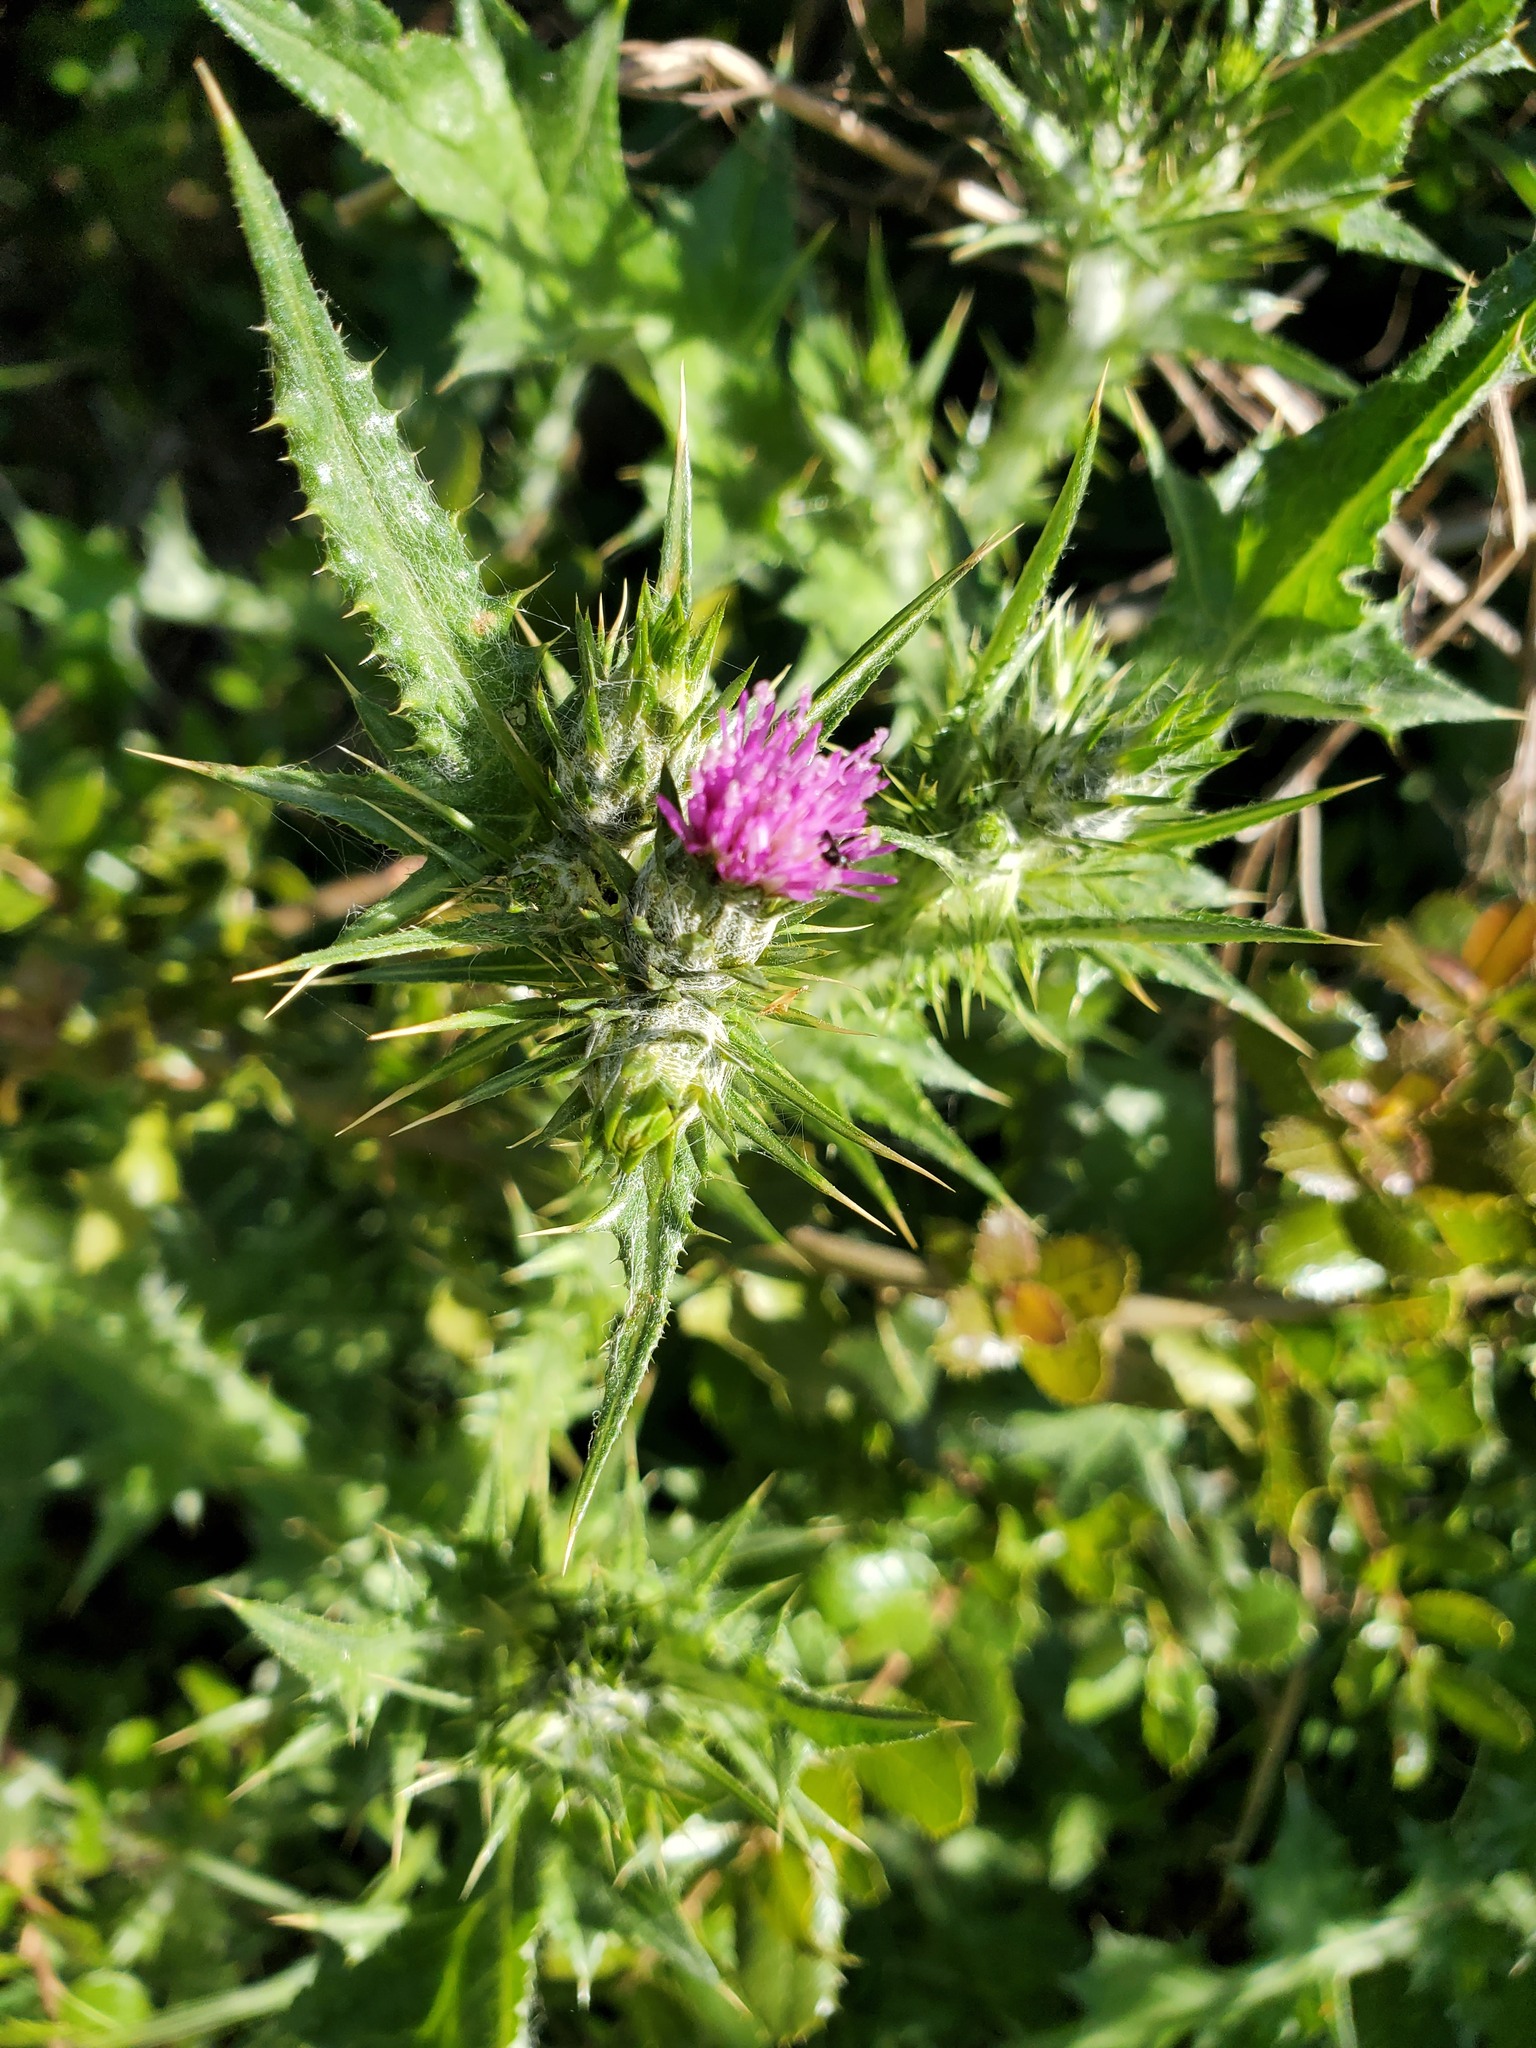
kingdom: Plantae
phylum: Tracheophyta
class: Magnoliopsida
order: Asterales
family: Asteraceae
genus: Carduus
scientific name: Carduus pycnocephalus
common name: Plymouth thistle
